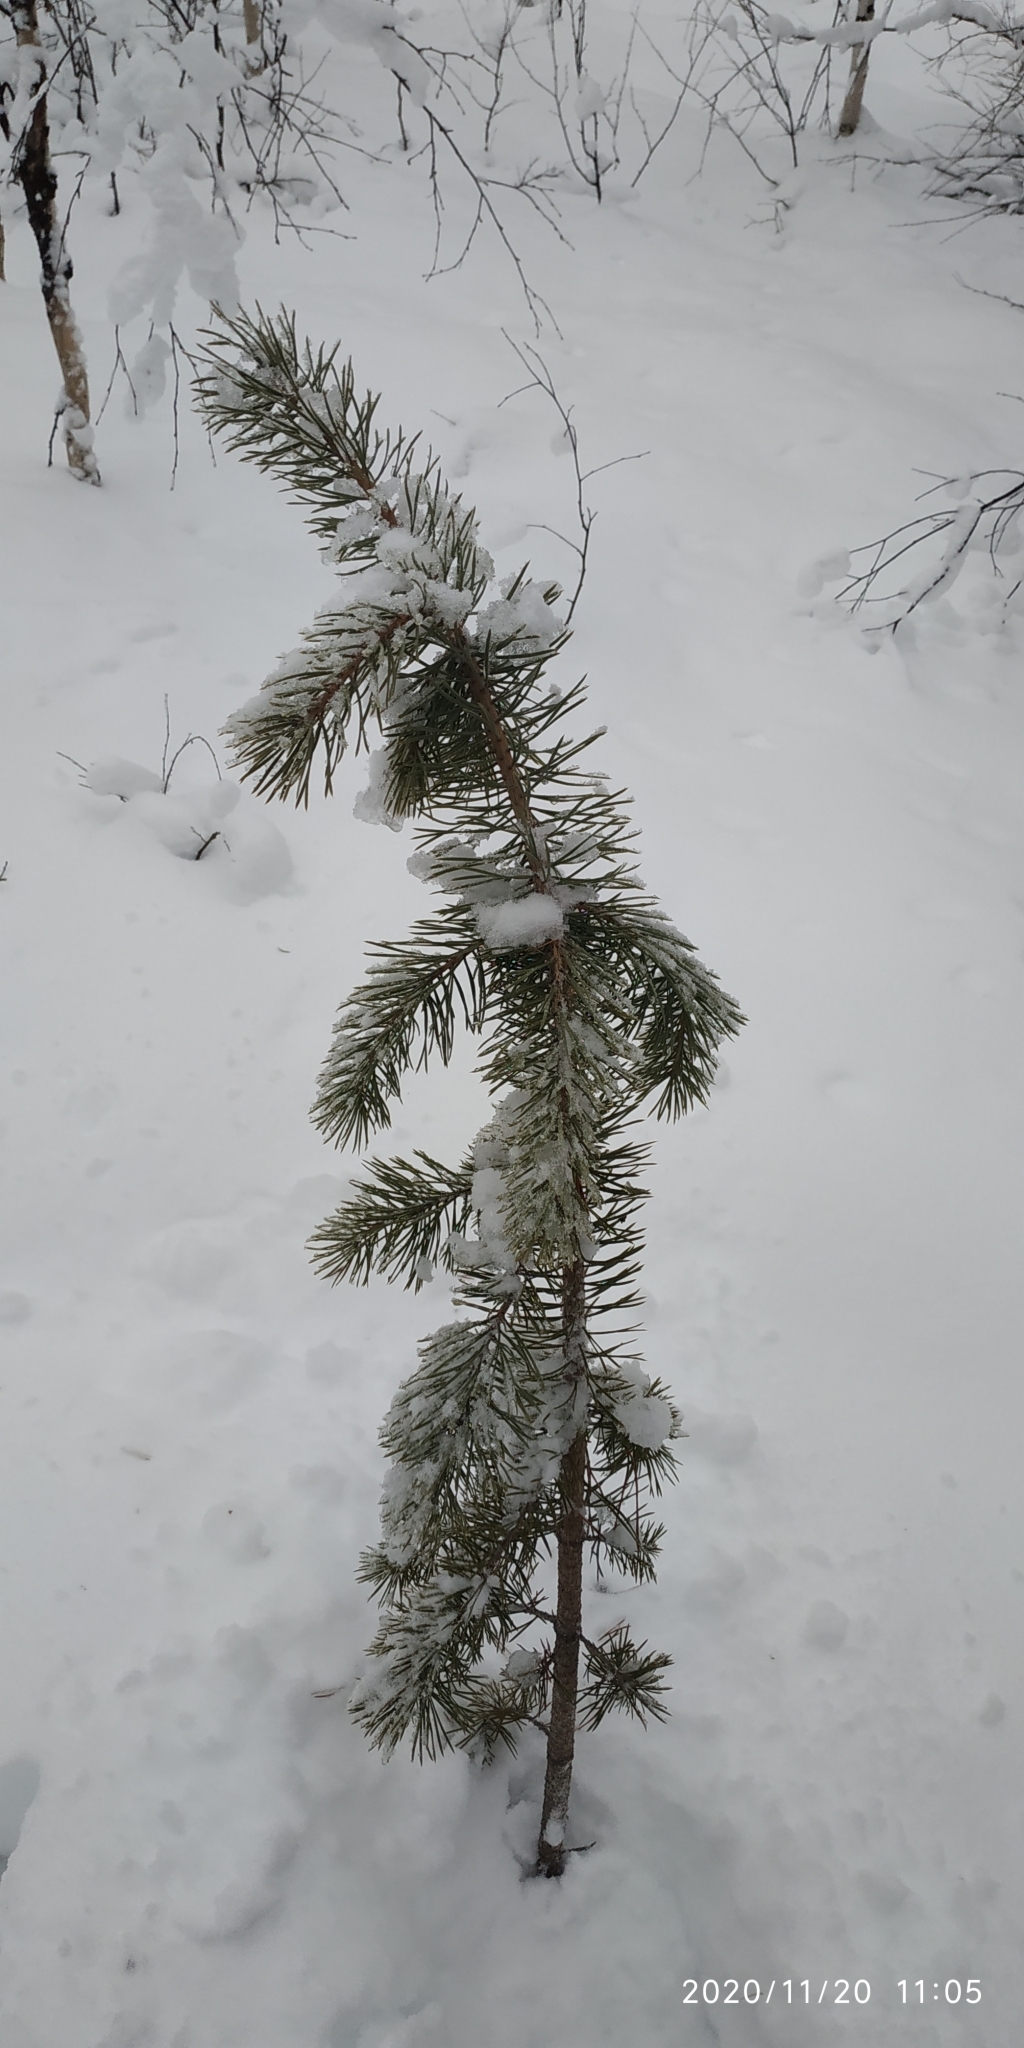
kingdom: Plantae
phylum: Tracheophyta
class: Pinopsida
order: Pinales
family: Pinaceae
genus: Pinus
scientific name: Pinus sylvestris
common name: Scots pine
